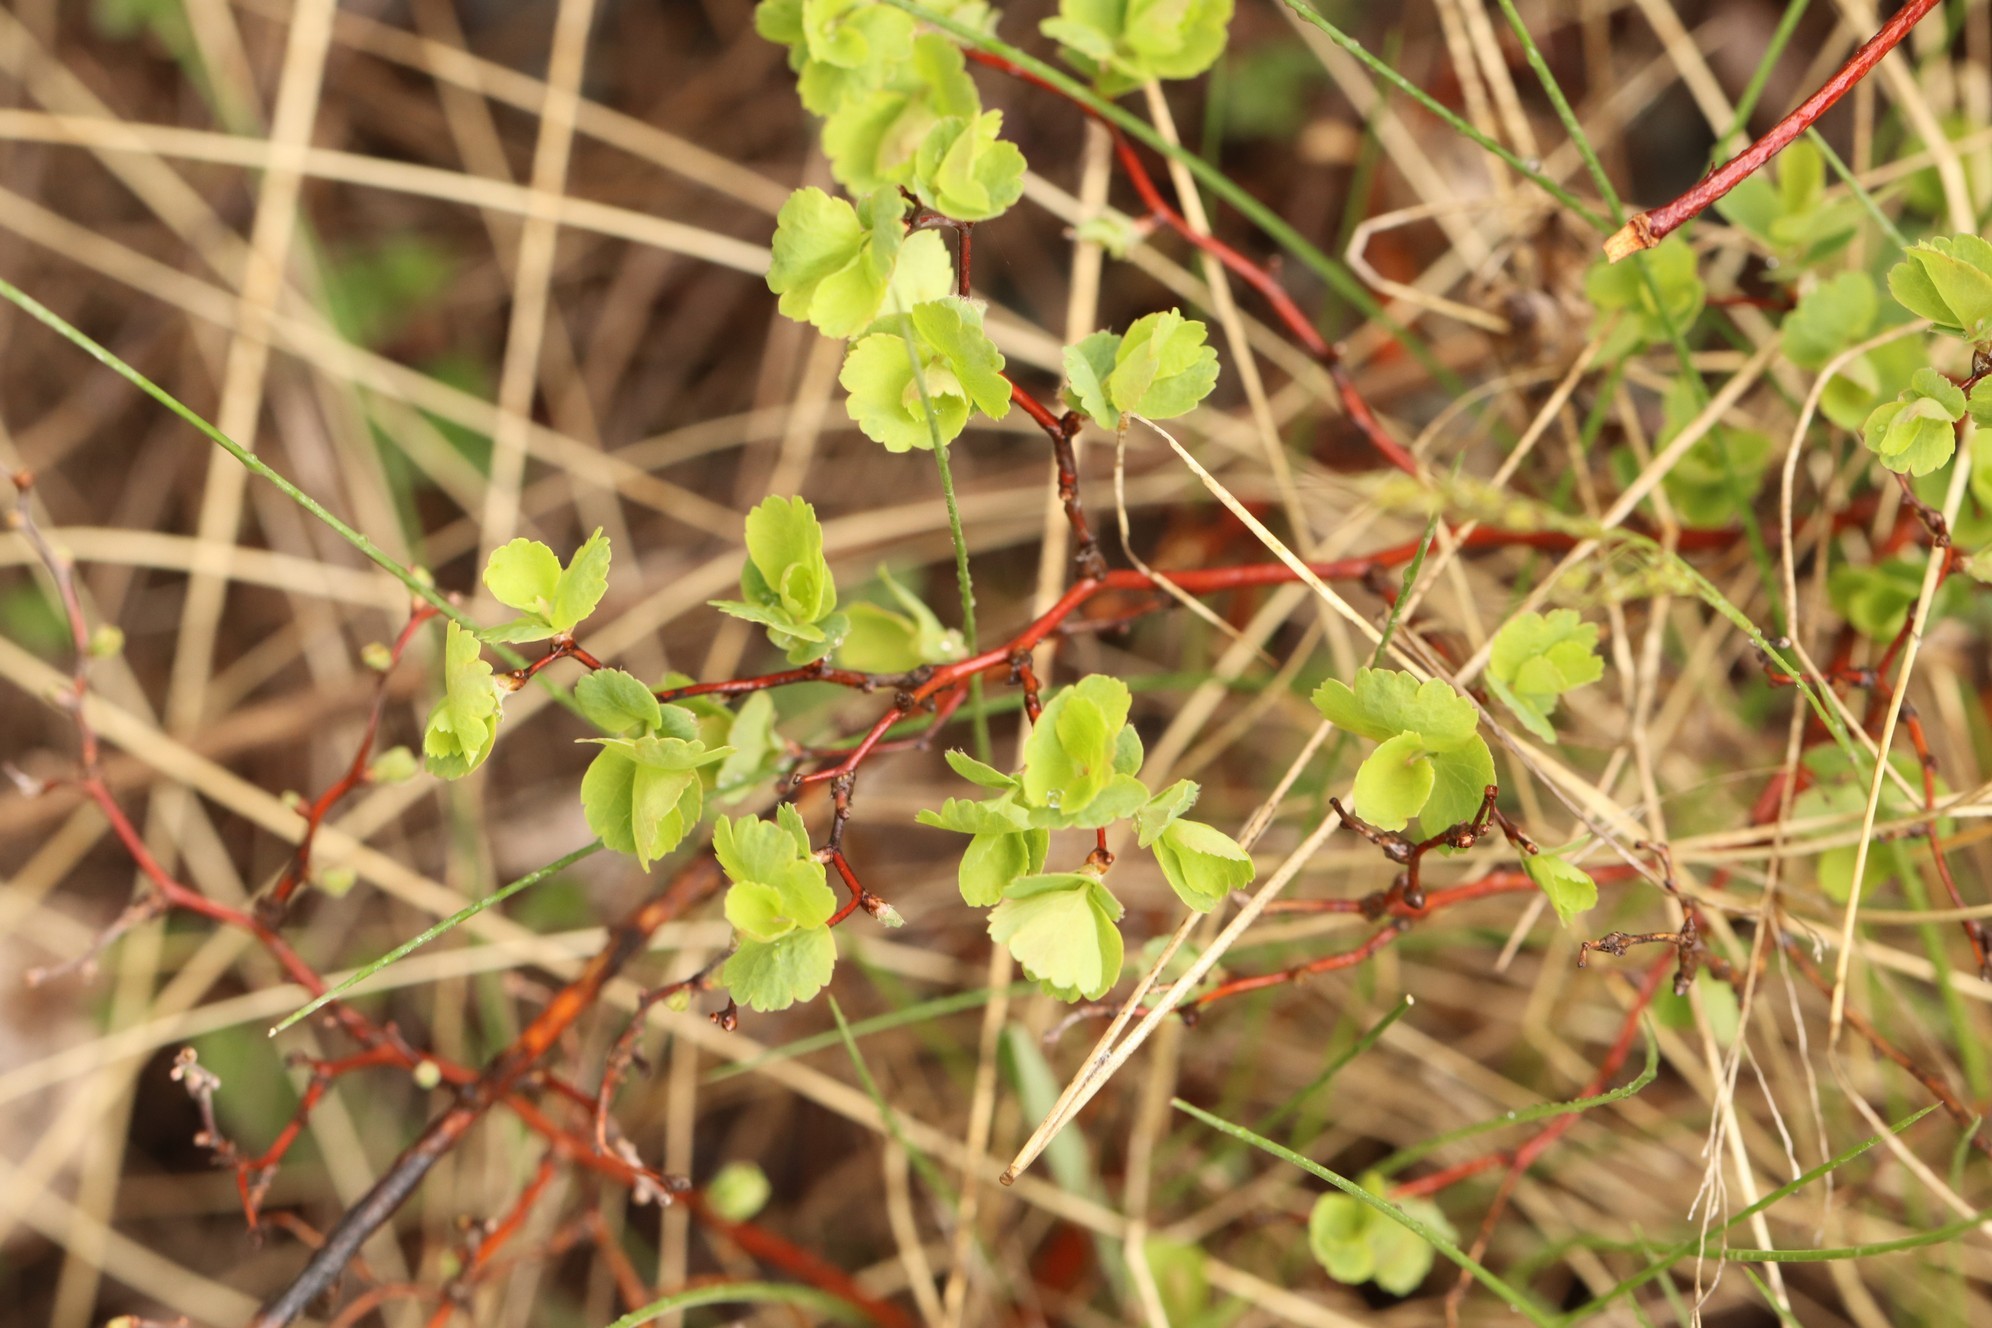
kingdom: Plantae
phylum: Tracheophyta
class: Magnoliopsida
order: Rosales
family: Rosaceae
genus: Spiraea
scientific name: Spiraea trilobata
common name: Asian meadowsweet
